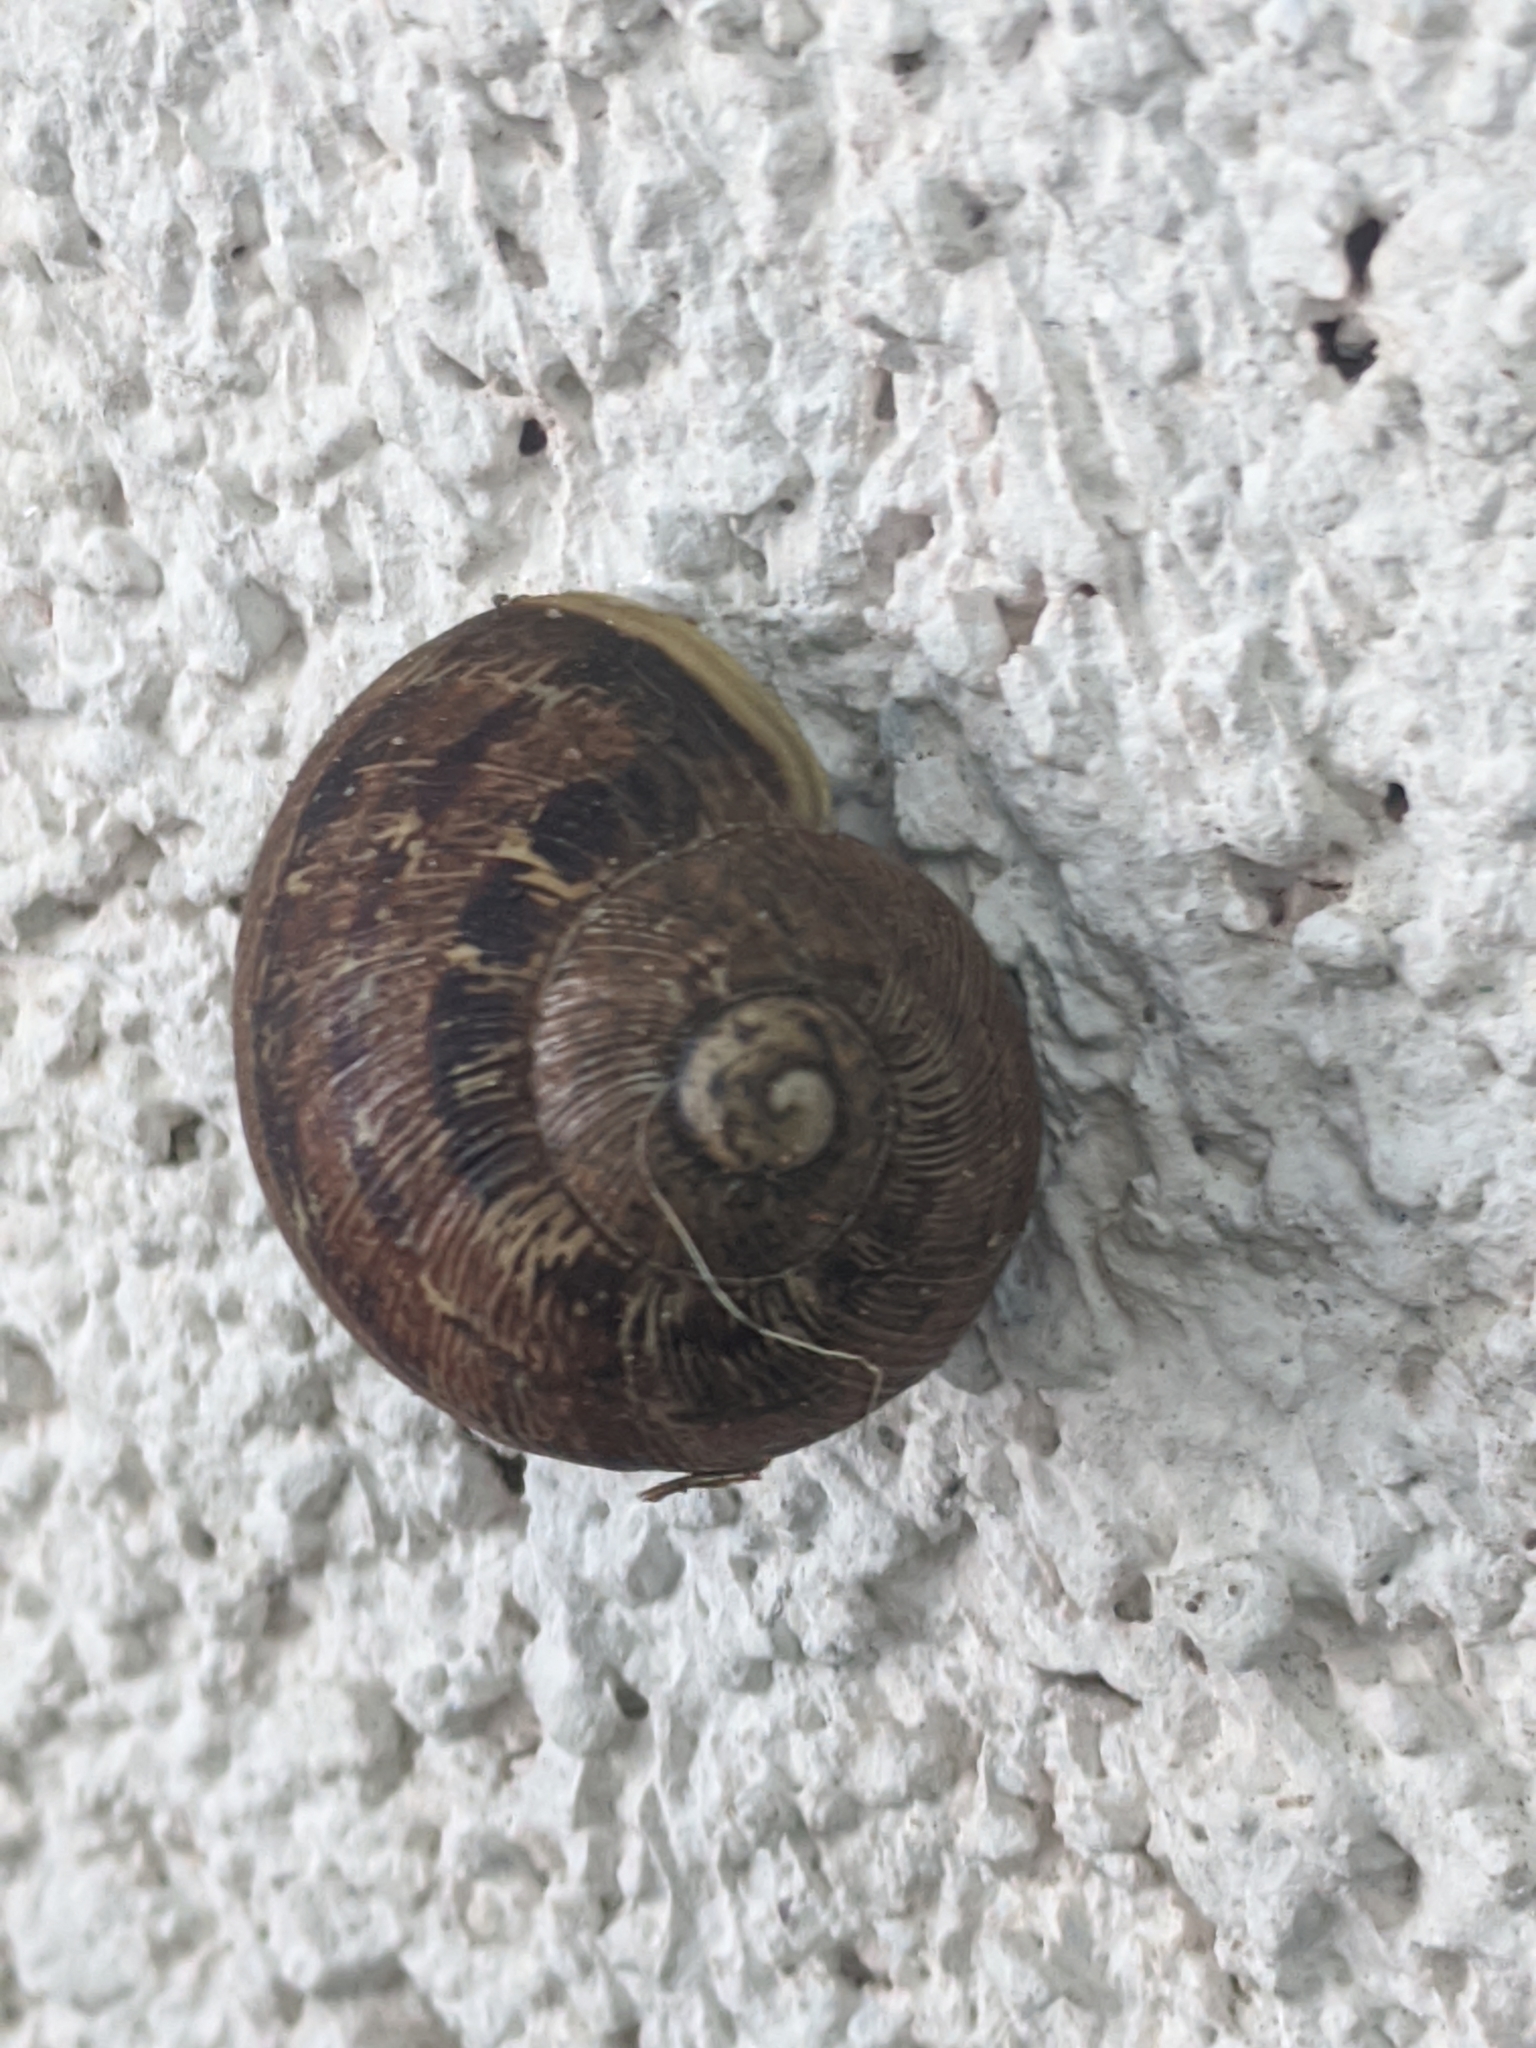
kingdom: Animalia
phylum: Mollusca
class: Gastropoda
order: Stylommatophora
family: Helicidae
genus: Cornu
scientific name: Cornu aspersum
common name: Brown garden snail
